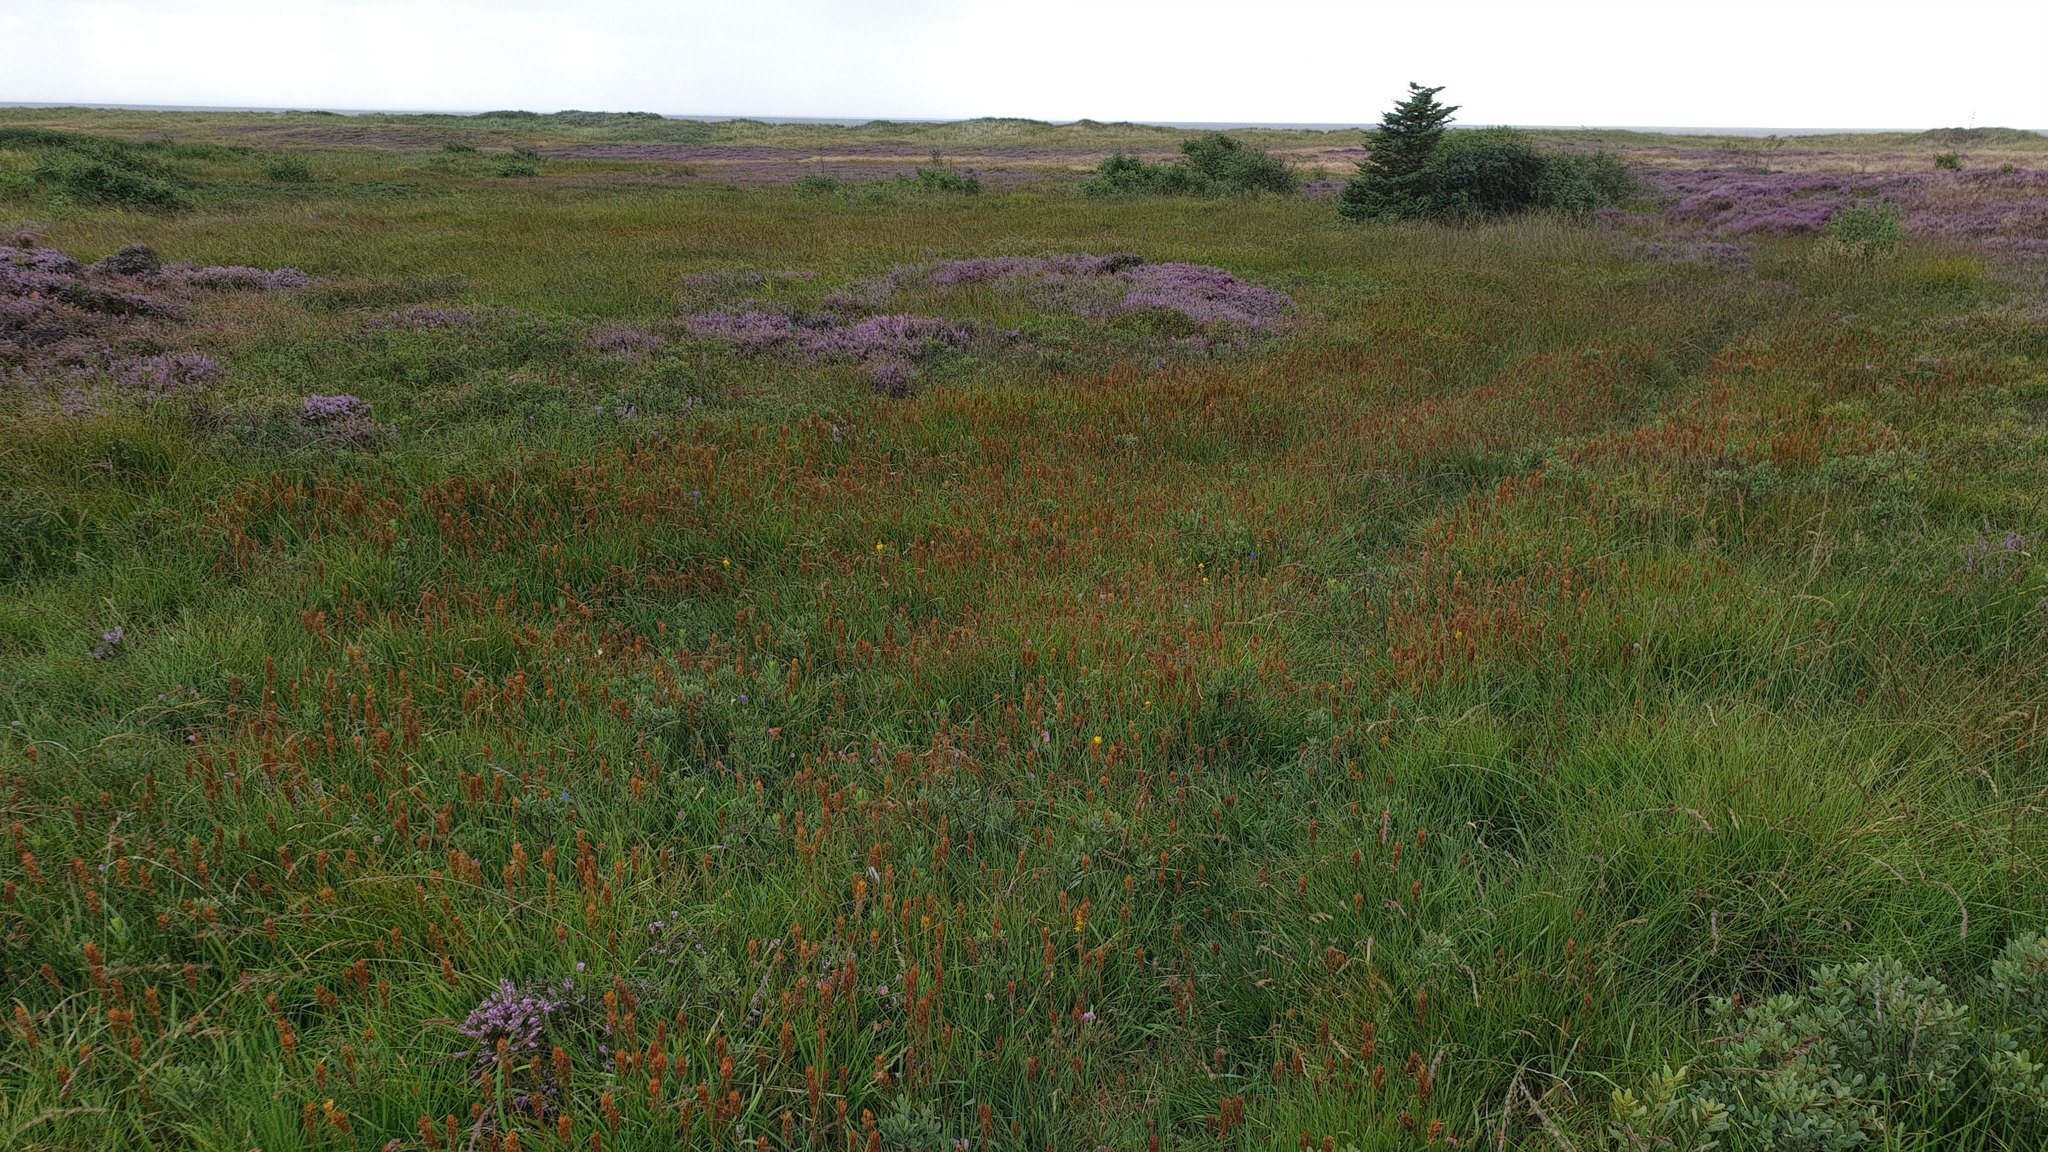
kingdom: Plantae
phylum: Tracheophyta
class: Liliopsida
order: Dioscoreales
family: Nartheciaceae
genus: Narthecium
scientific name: Narthecium ossifragum
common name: Bog asphodel
